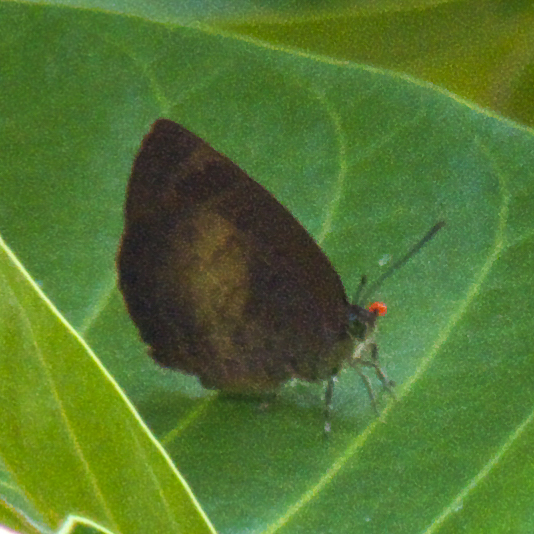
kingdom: Animalia
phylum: Arthropoda
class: Insecta
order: Lepidoptera
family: Lycaenidae
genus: Arhopala
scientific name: Arhopala perimuta
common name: Yellowdisc oakblue
